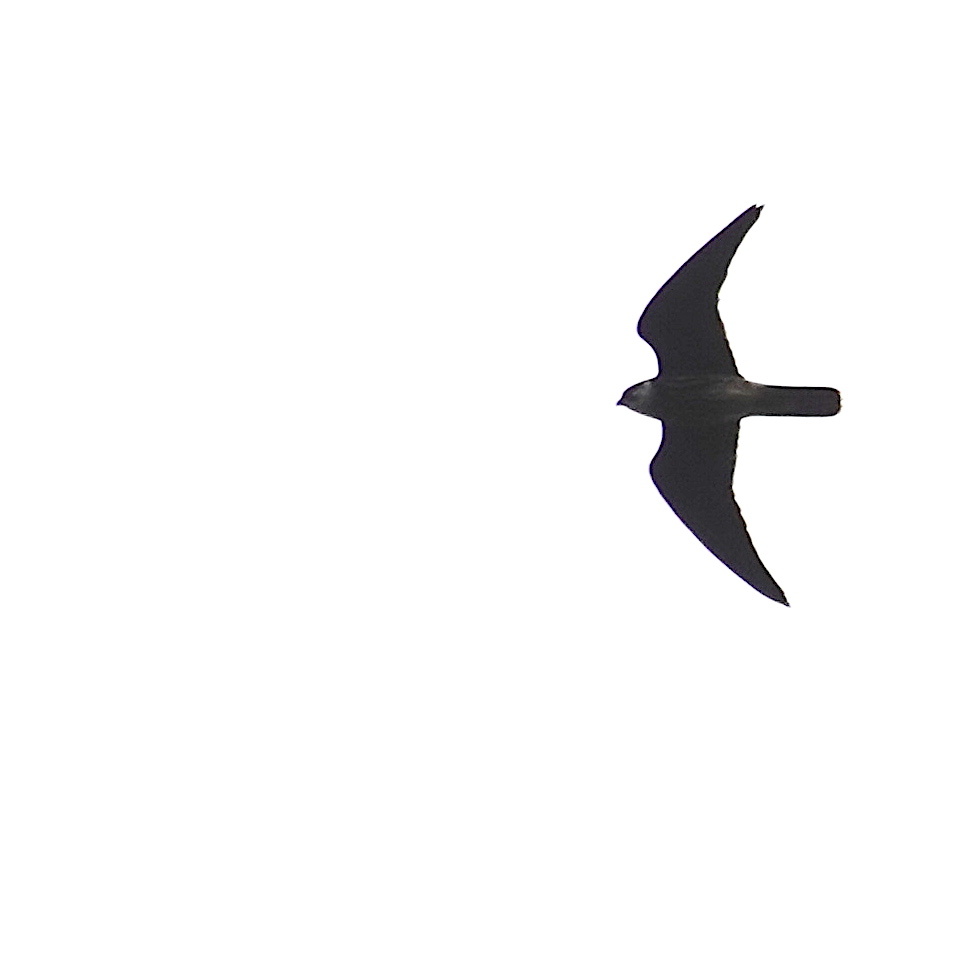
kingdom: Animalia
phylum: Chordata
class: Aves
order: Falconiformes
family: Falconidae
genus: Falco
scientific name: Falco subbuteo
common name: Eurasian hobby
